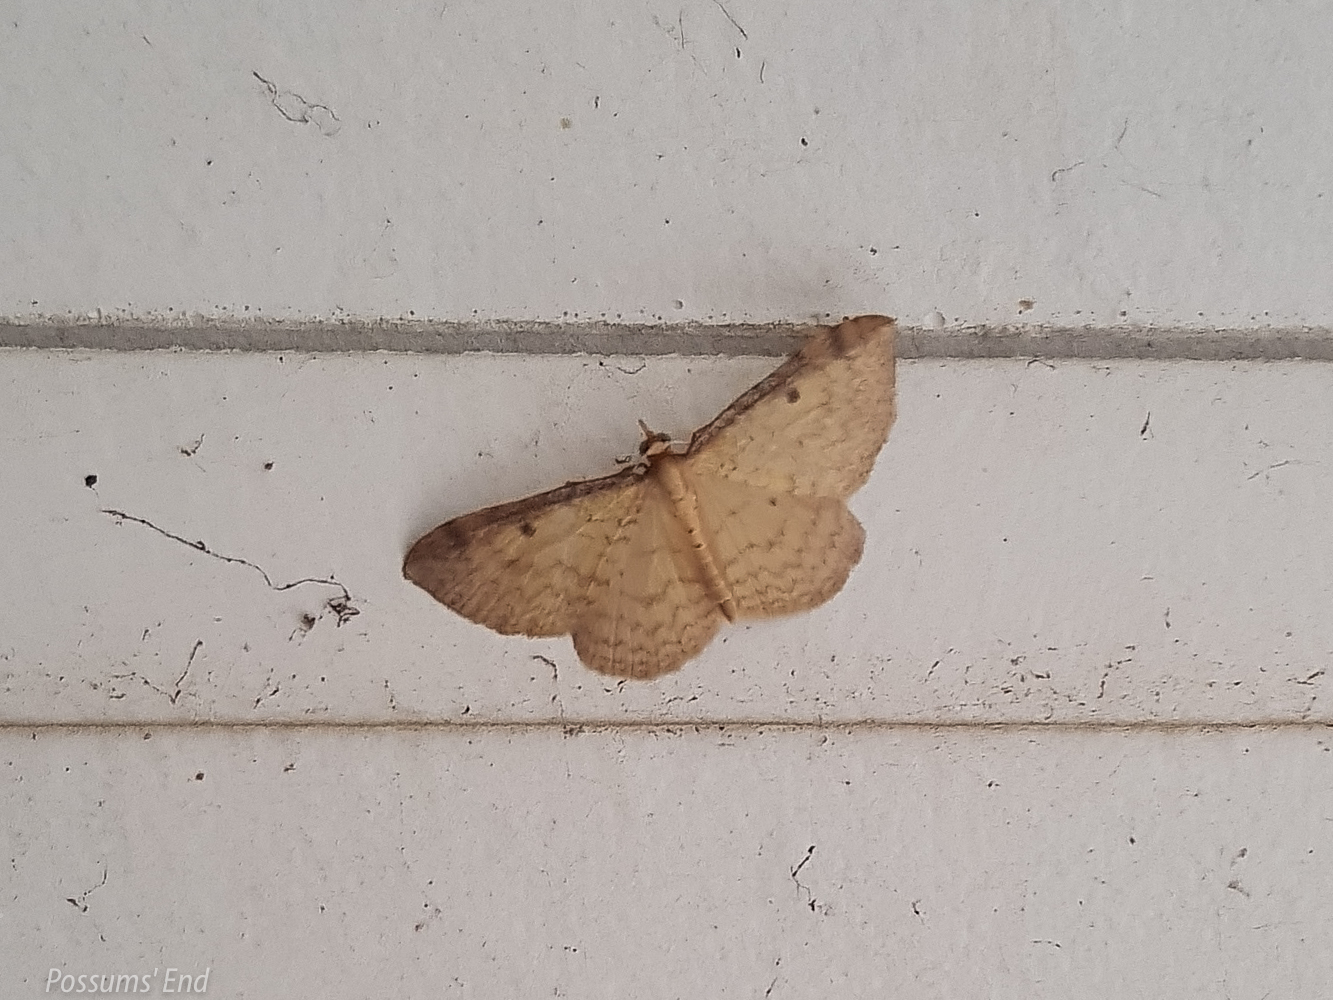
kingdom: Animalia
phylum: Arthropoda
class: Insecta
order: Lepidoptera
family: Geometridae
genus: Epiphryne
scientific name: Epiphryne undosata
